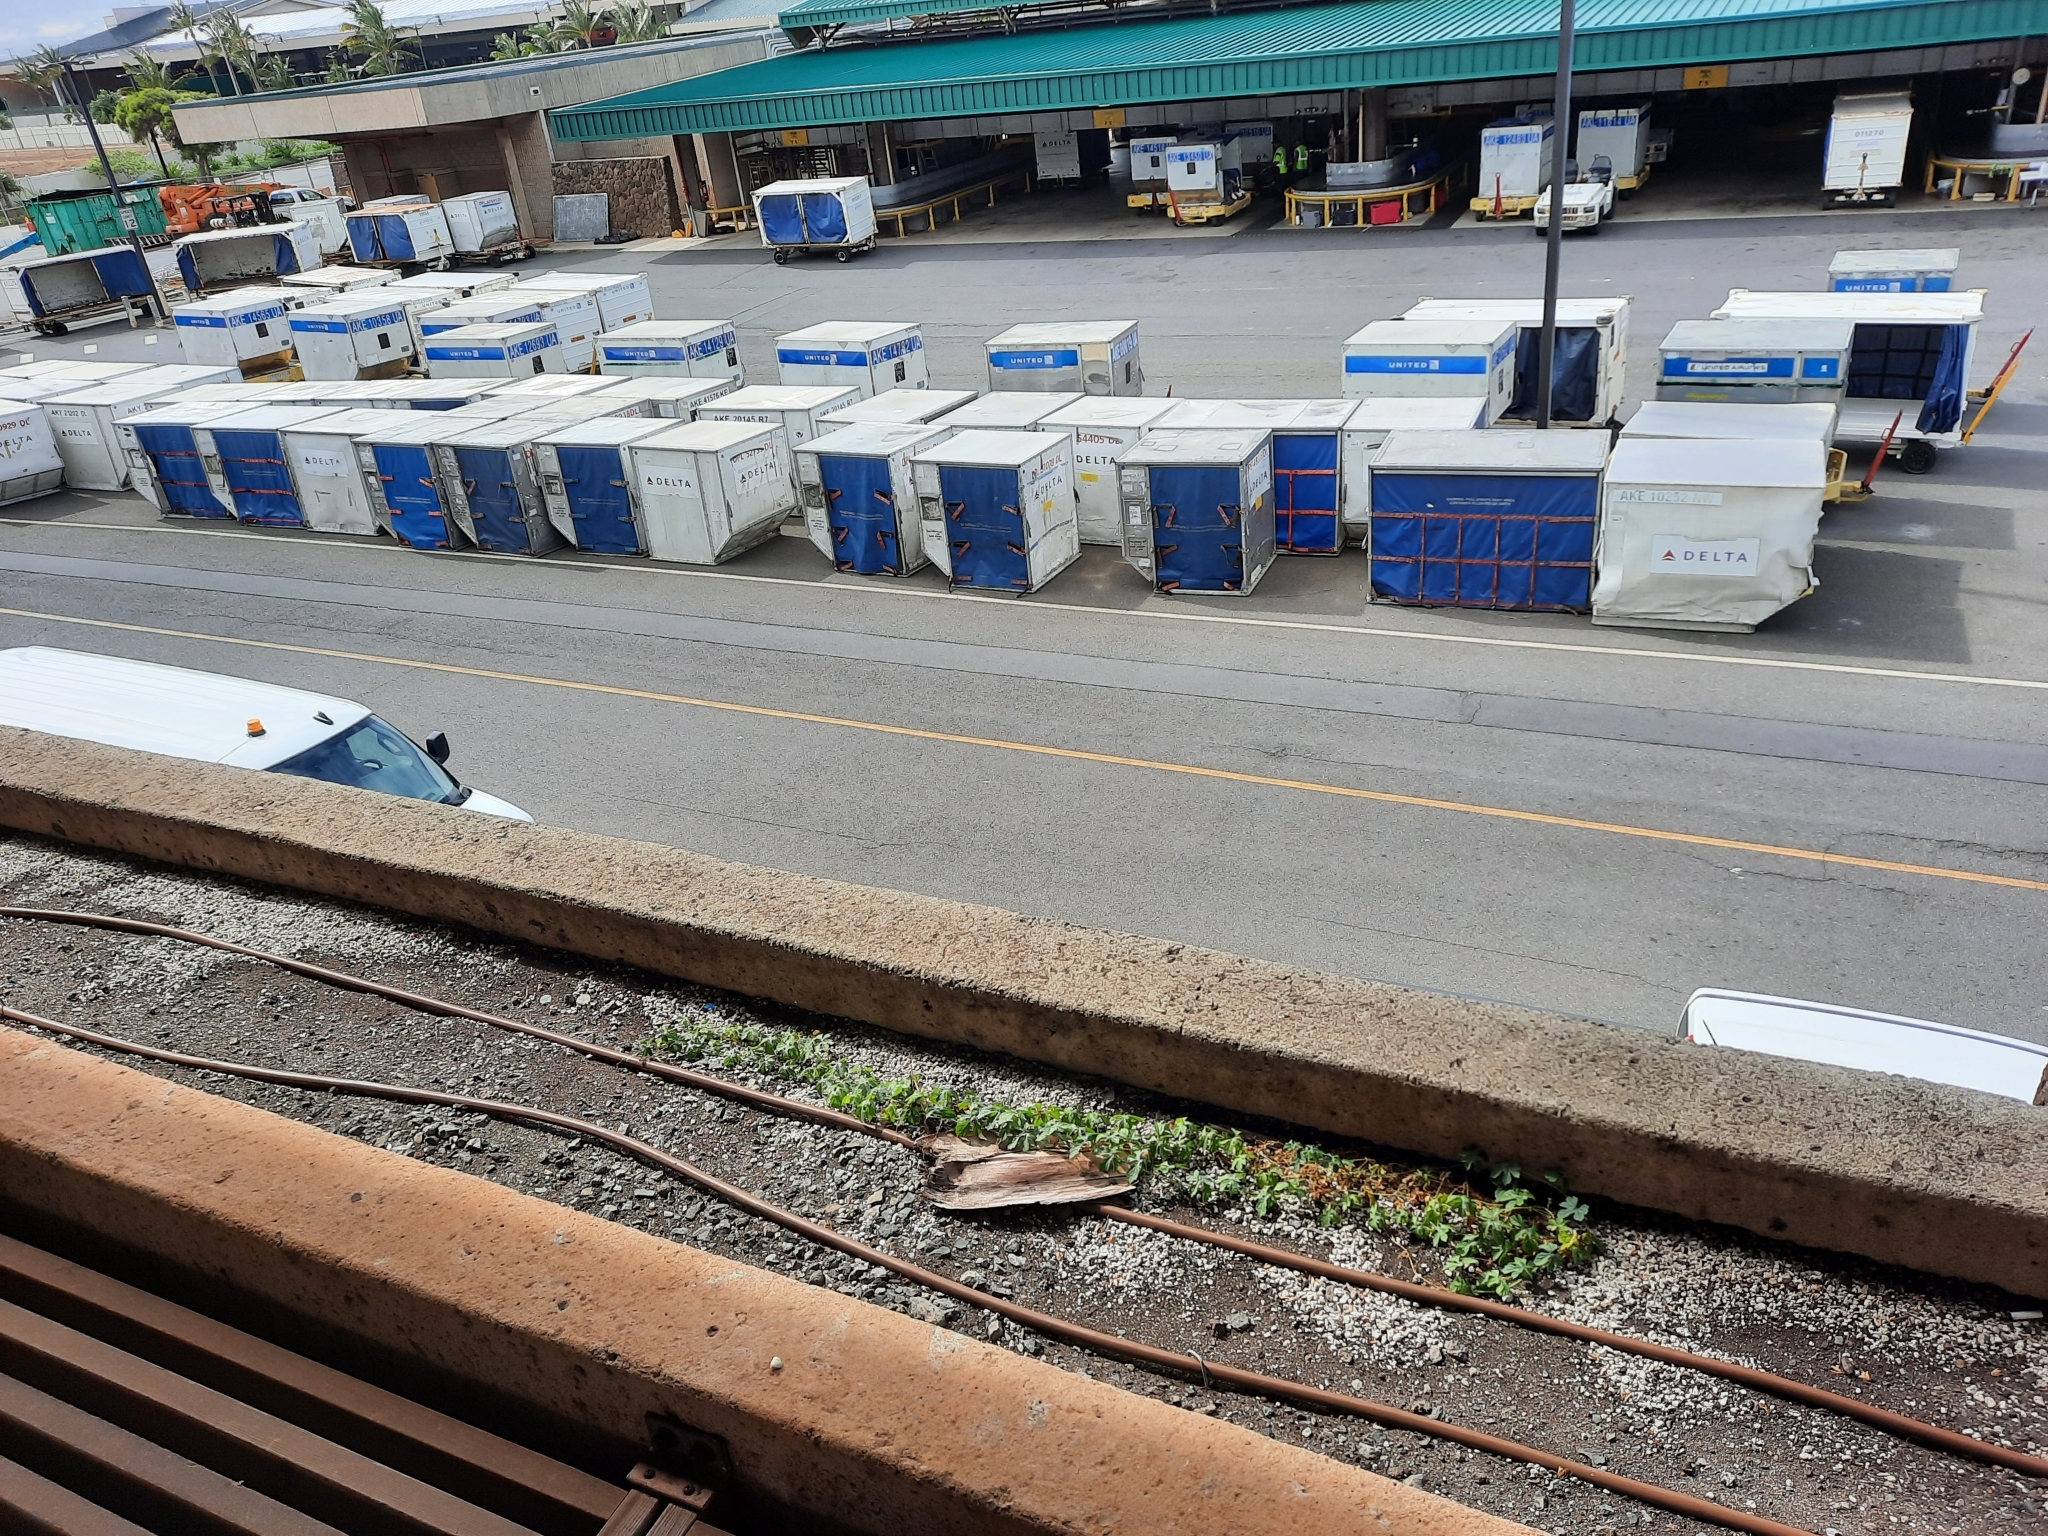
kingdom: Plantae
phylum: Tracheophyta
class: Magnoliopsida
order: Cucurbitales
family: Cucurbitaceae
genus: Momordica
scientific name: Momordica charantia
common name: Balsampear
